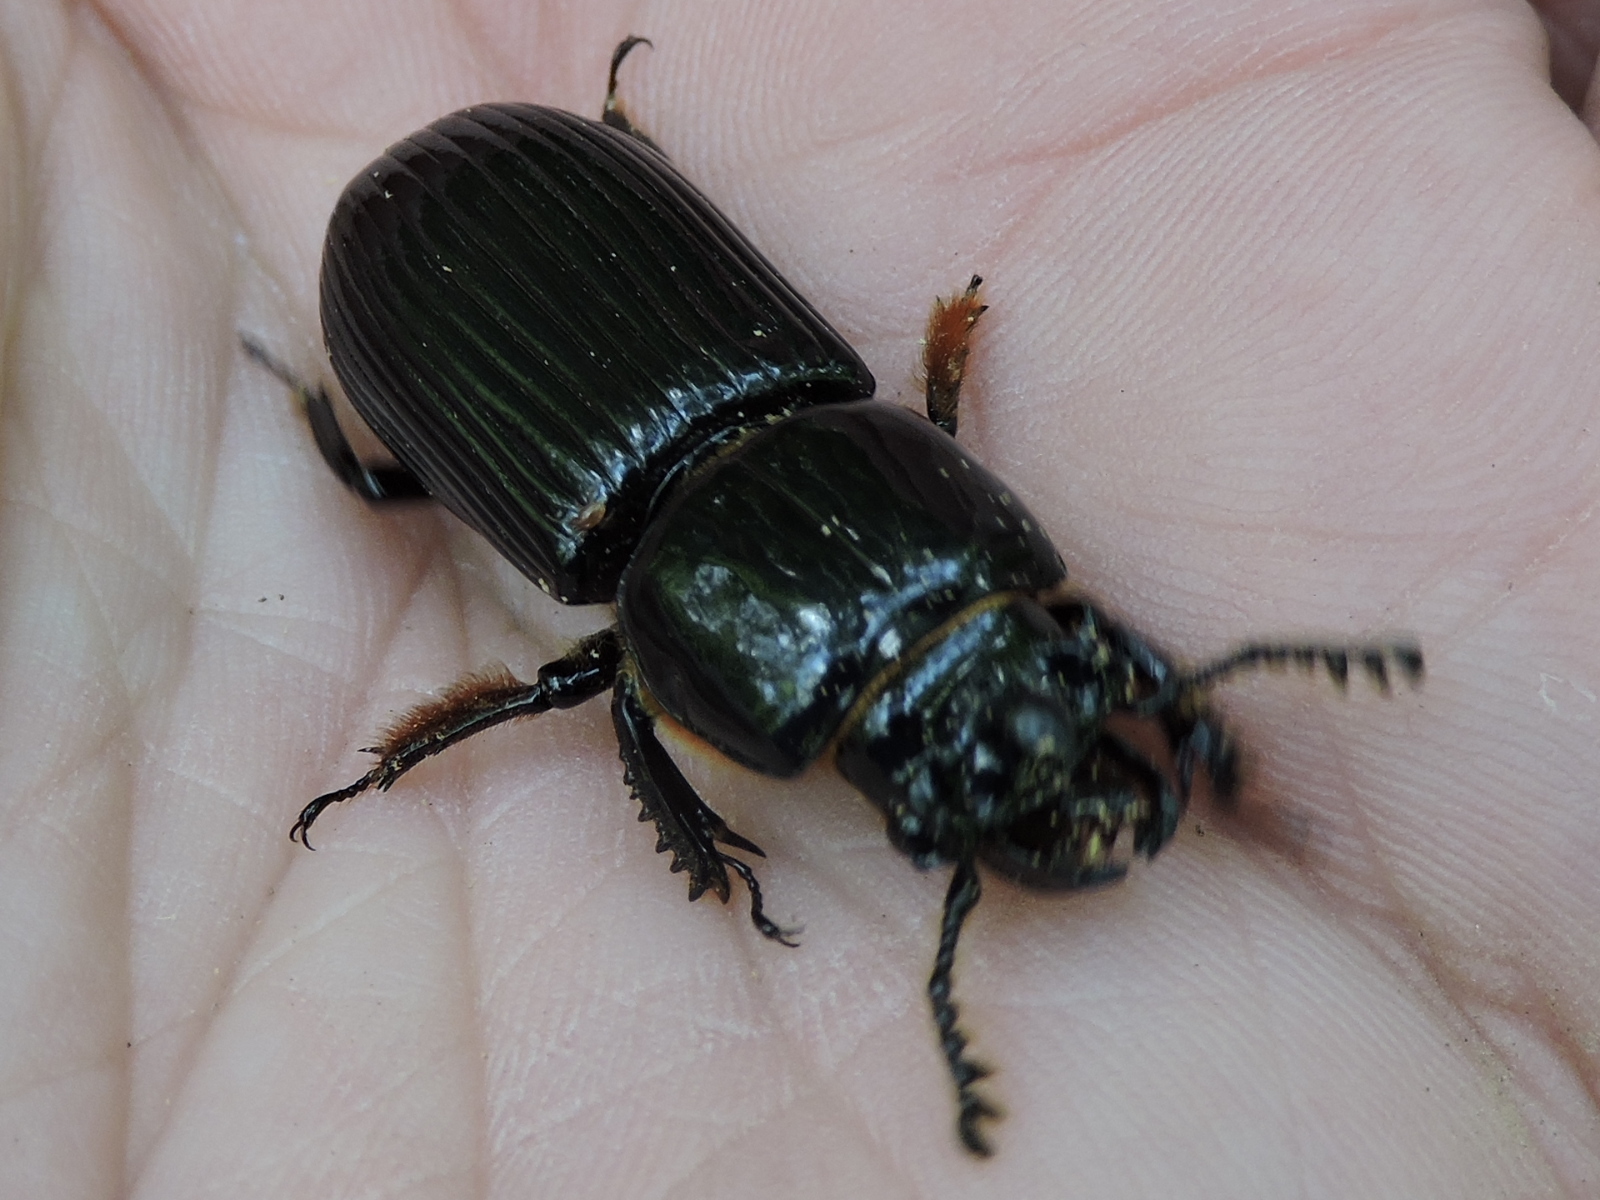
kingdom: Animalia
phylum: Arthropoda
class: Insecta
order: Coleoptera
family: Passalidae
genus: Odontotaenius
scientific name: Odontotaenius disjunctus
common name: Patent leather beetle
